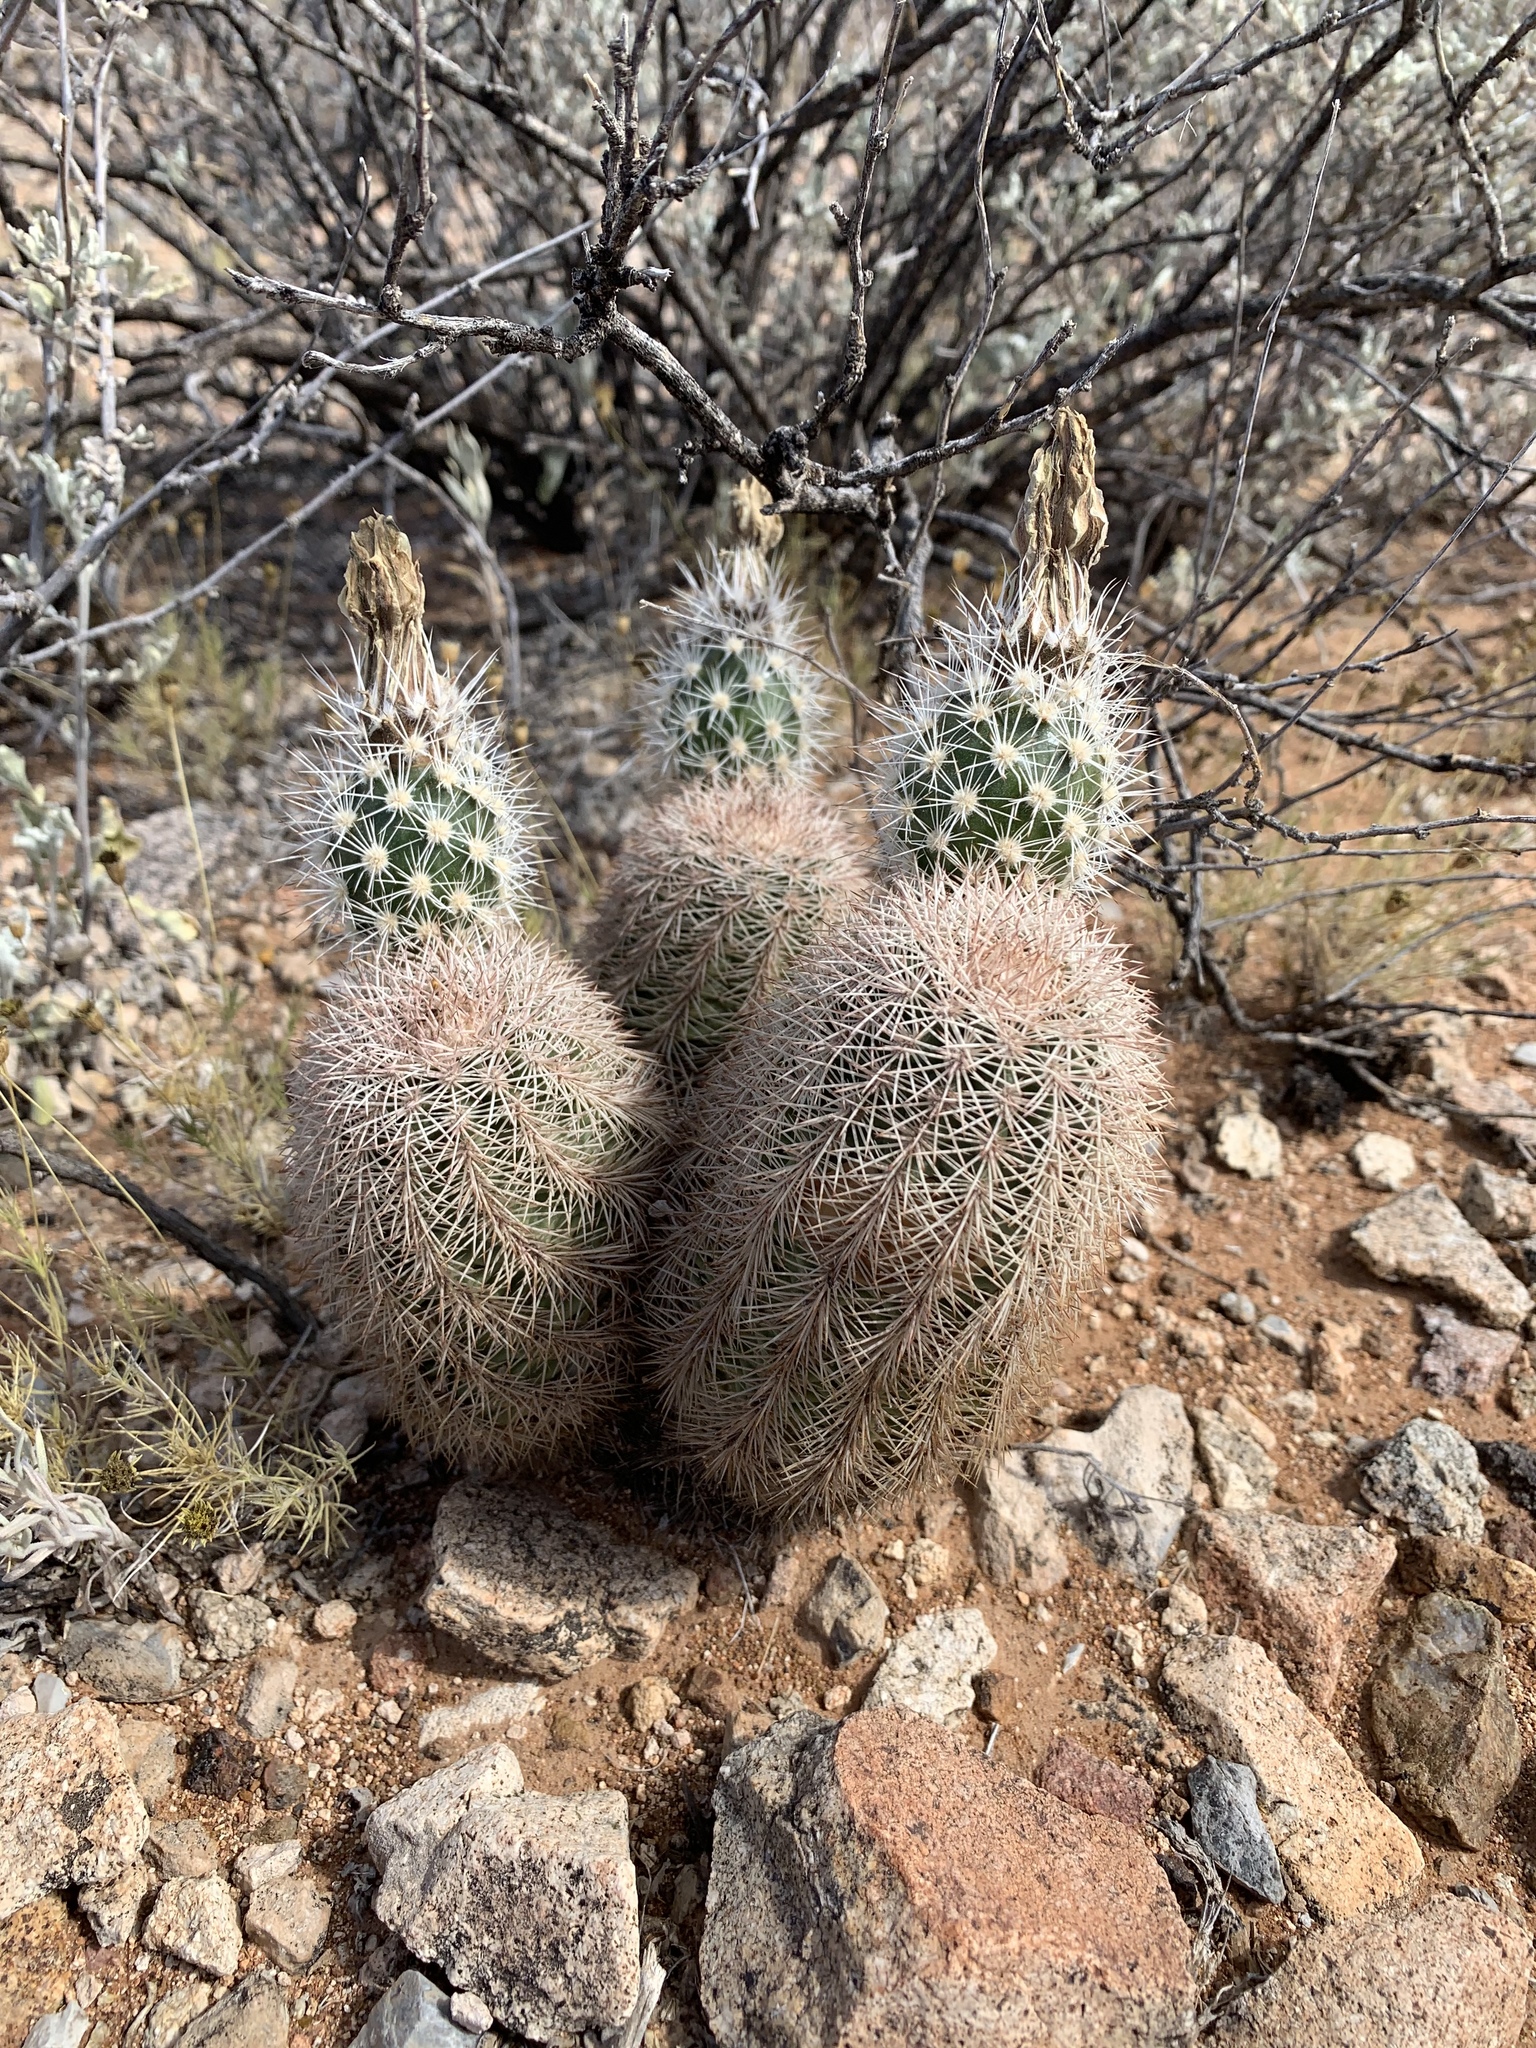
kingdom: Plantae
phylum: Tracheophyta
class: Magnoliopsida
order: Caryophyllales
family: Cactaceae
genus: Echinocereus
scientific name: Echinocereus dasyacanthus
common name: Spiny hedgehog cactus
